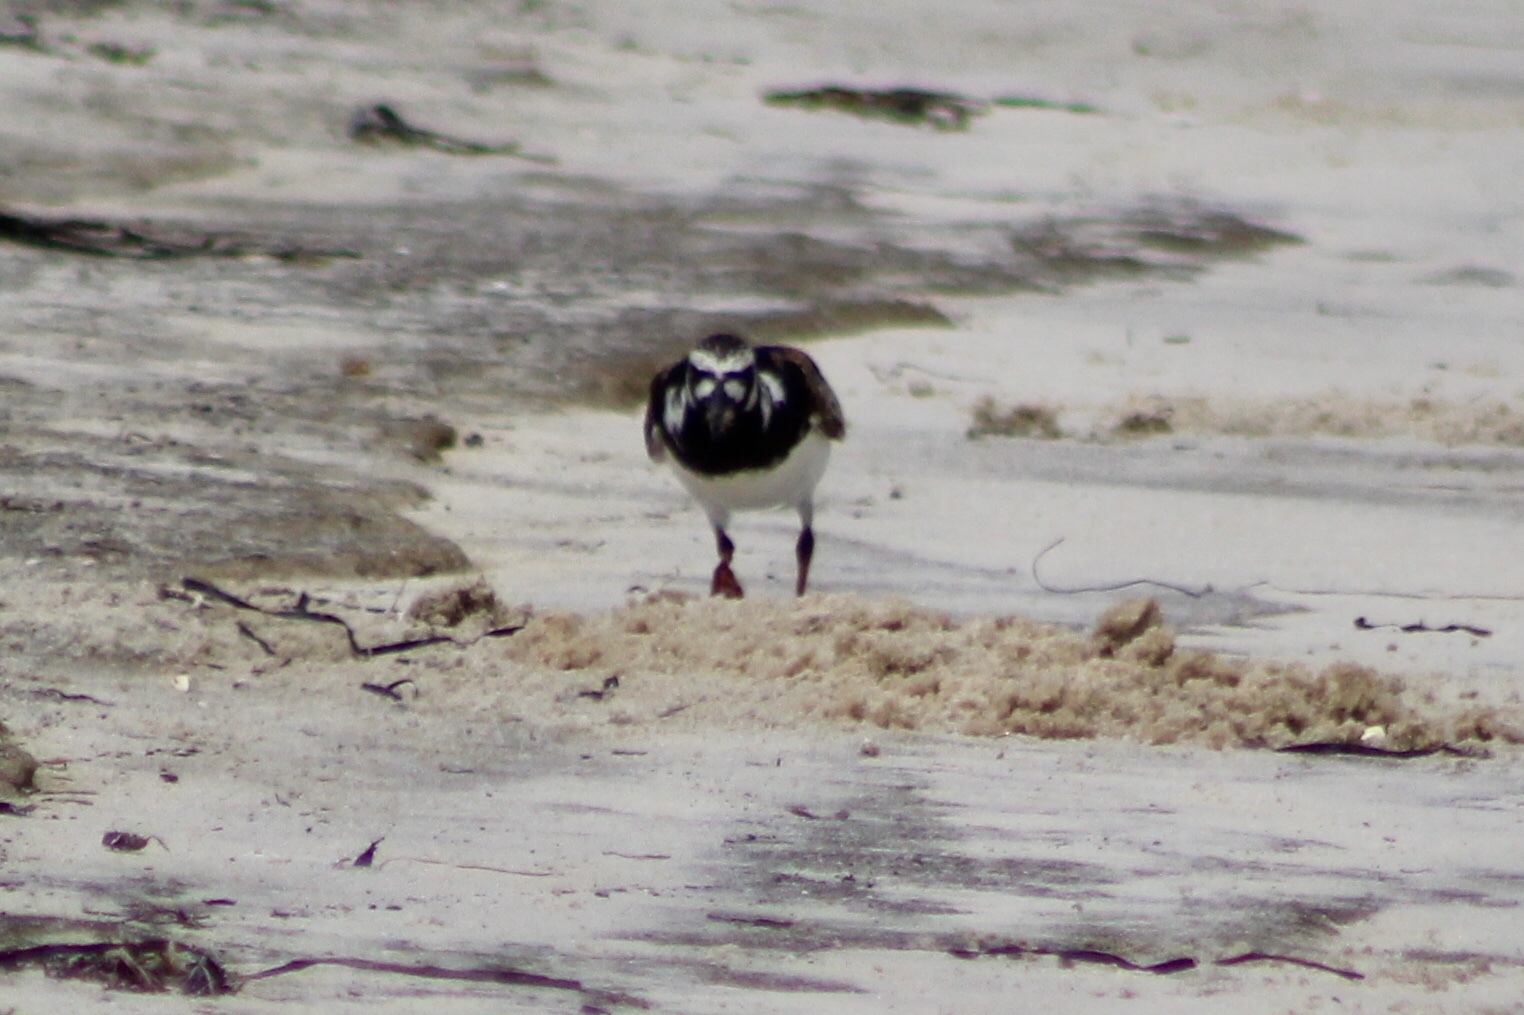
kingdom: Animalia
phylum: Chordata
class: Aves
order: Charadriiformes
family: Scolopacidae
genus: Arenaria
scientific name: Arenaria interpres
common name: Ruddy turnstone
